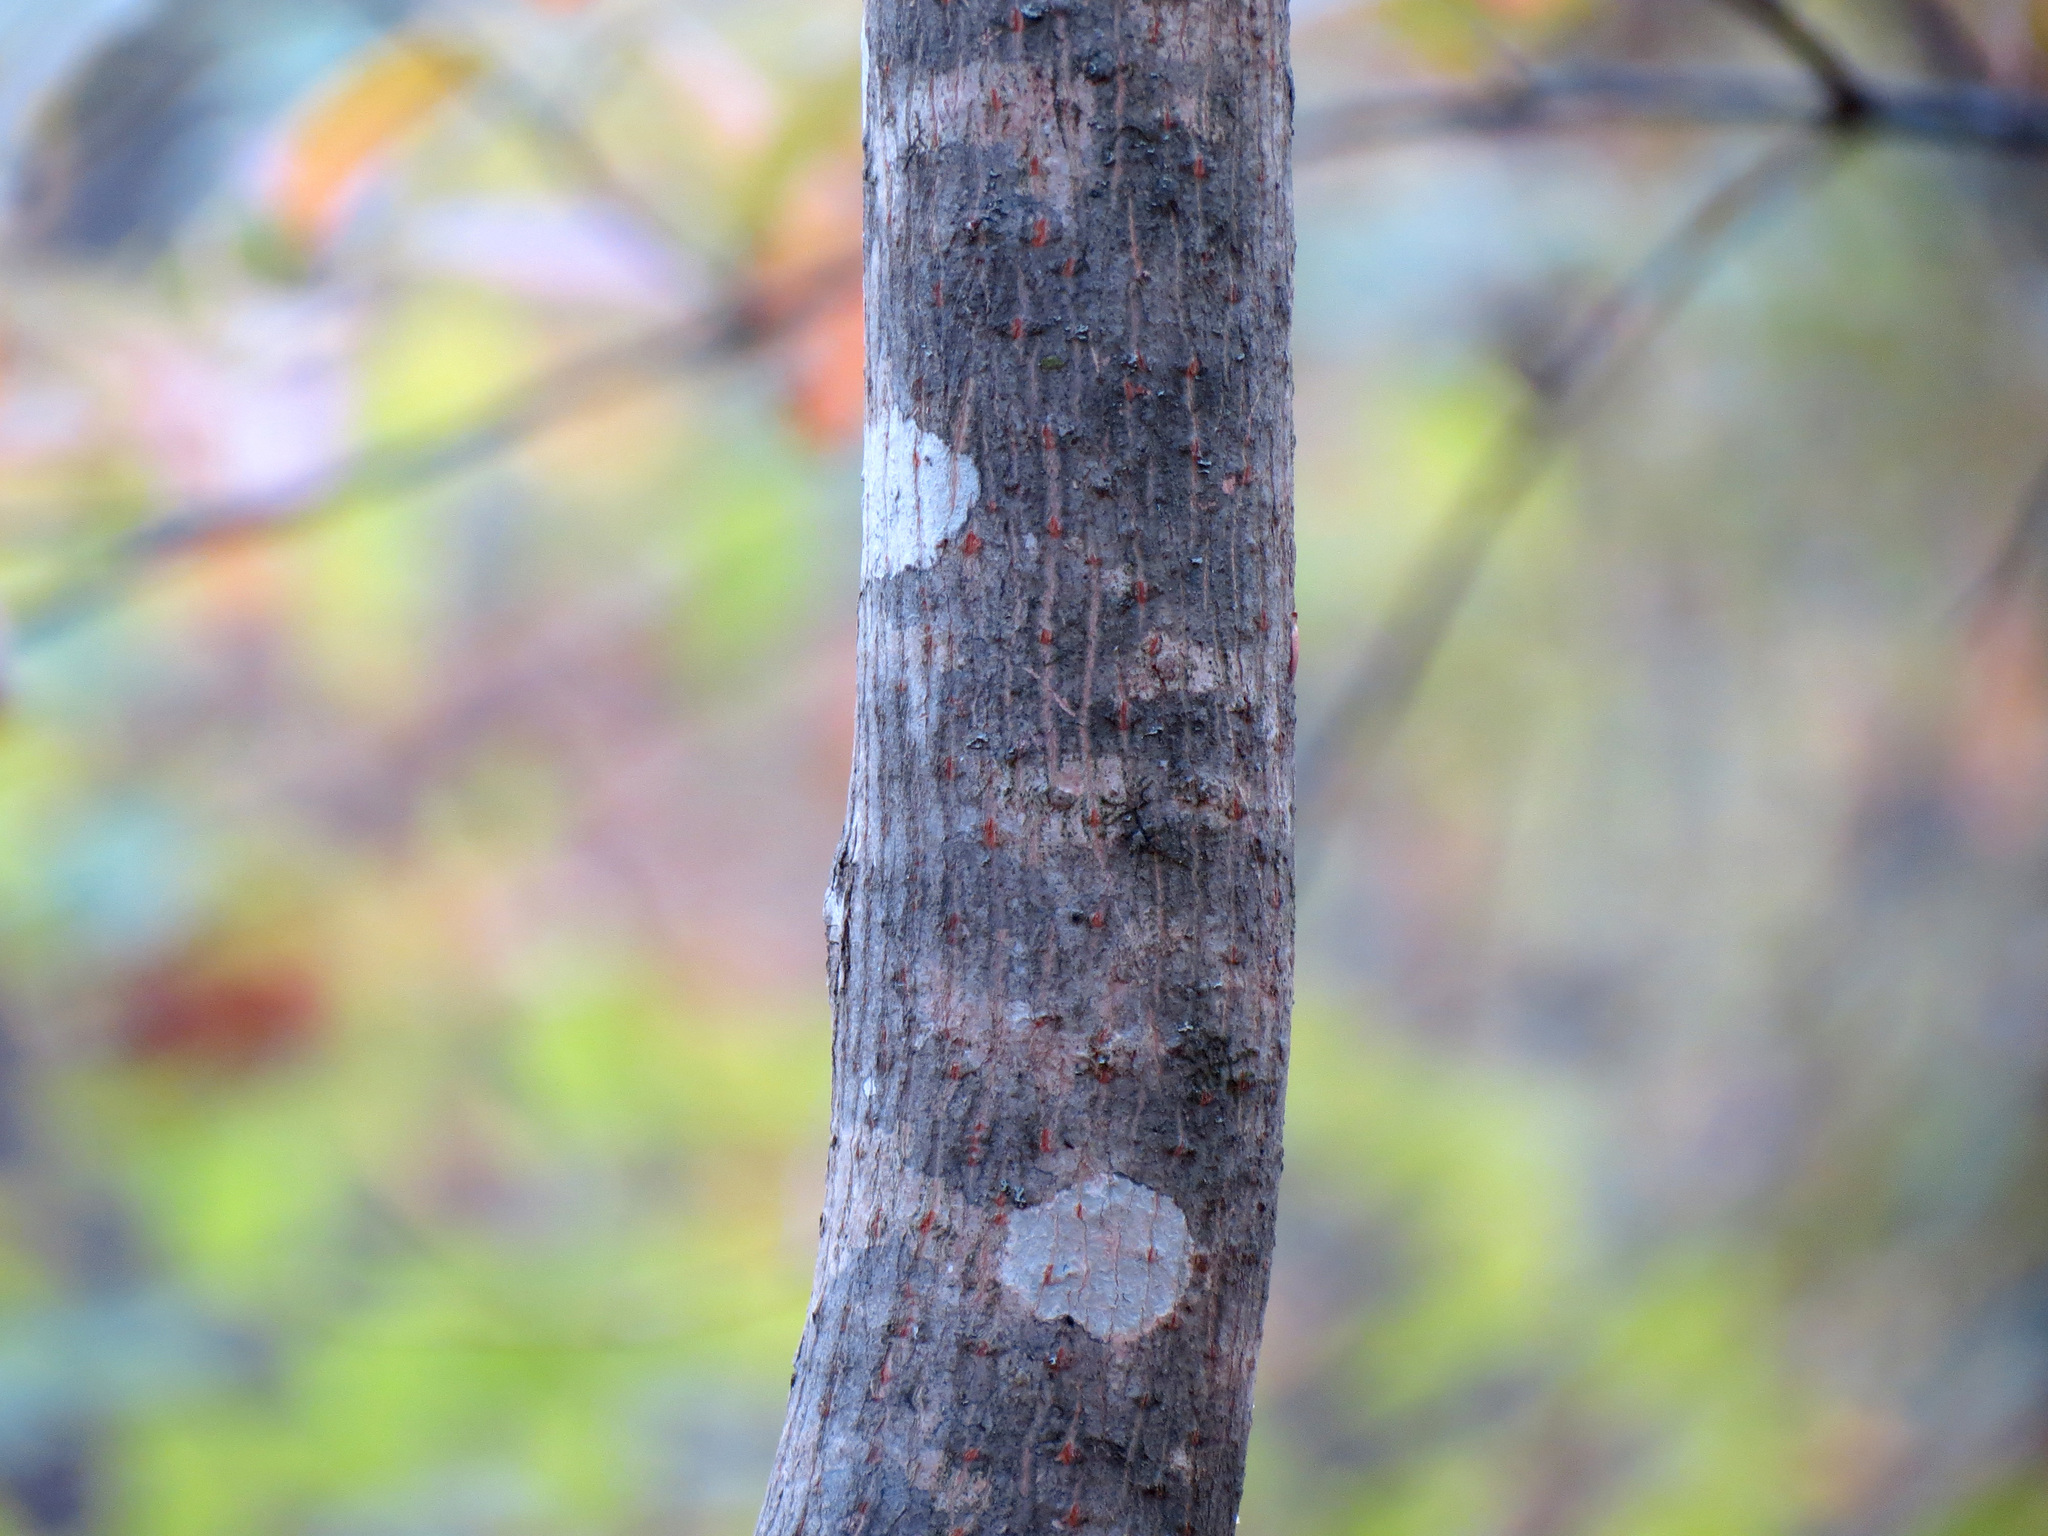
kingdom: Plantae
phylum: Tracheophyta
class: Magnoliopsida
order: Sapindales
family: Sapindaceae
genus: Acer
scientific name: Acer platanoides
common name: Norway maple
